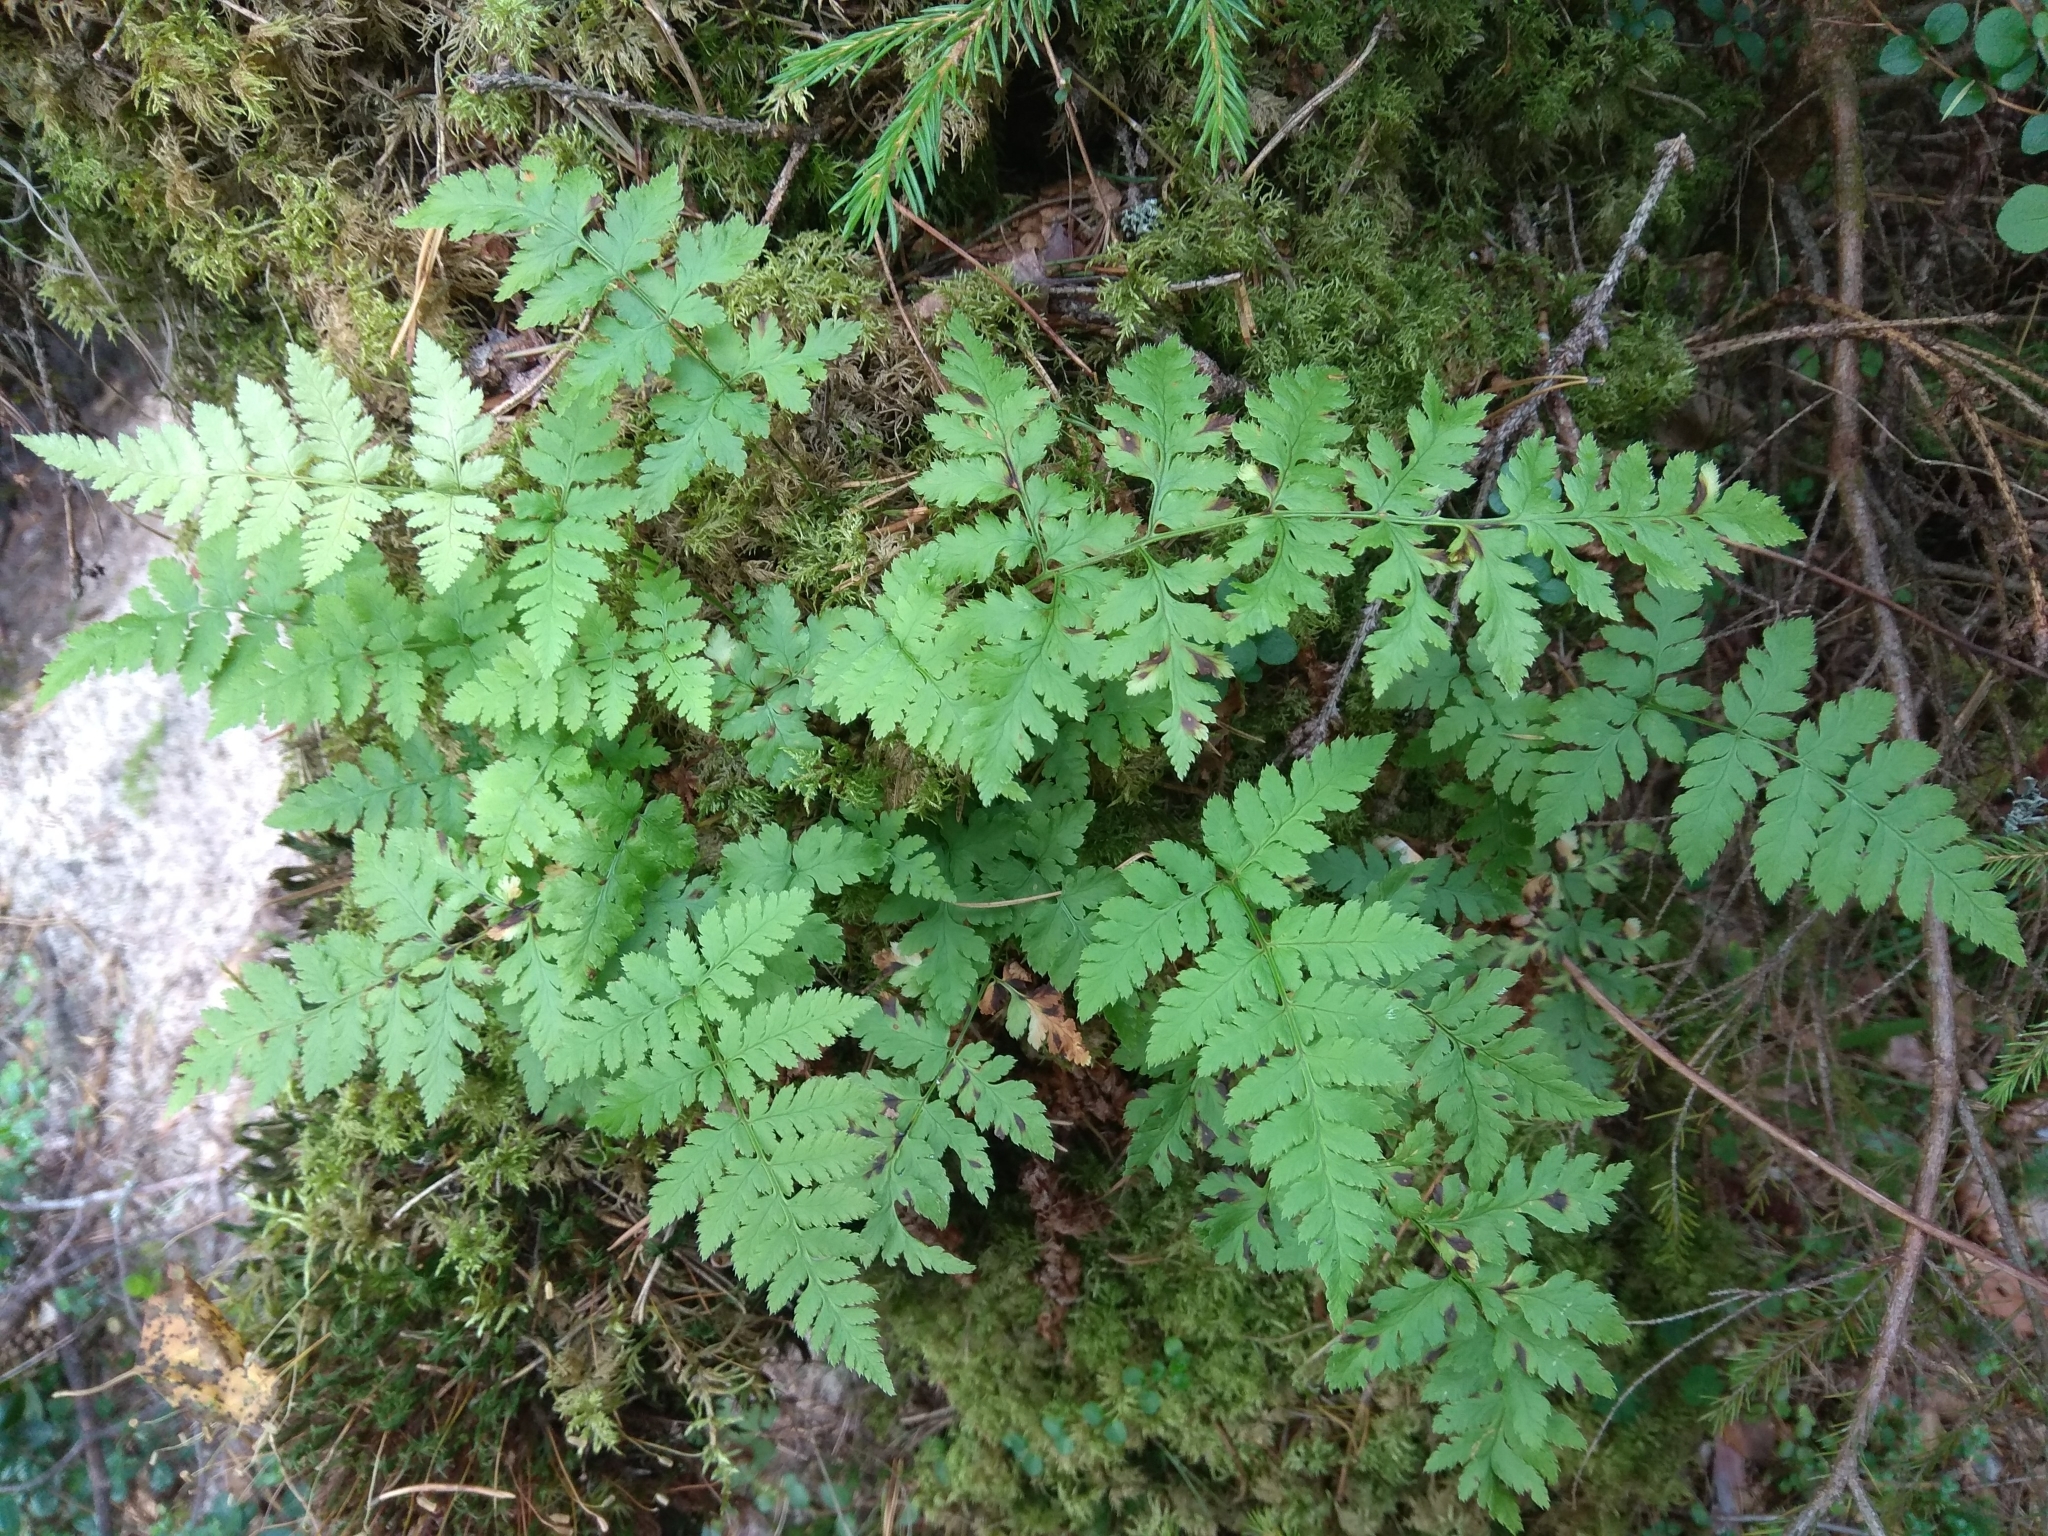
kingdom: Plantae
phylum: Tracheophyta
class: Polypodiopsida
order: Polypodiales
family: Dryopteridaceae
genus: Dryopteris
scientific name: Dryopteris carthusiana
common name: Narrow buckler-fern
